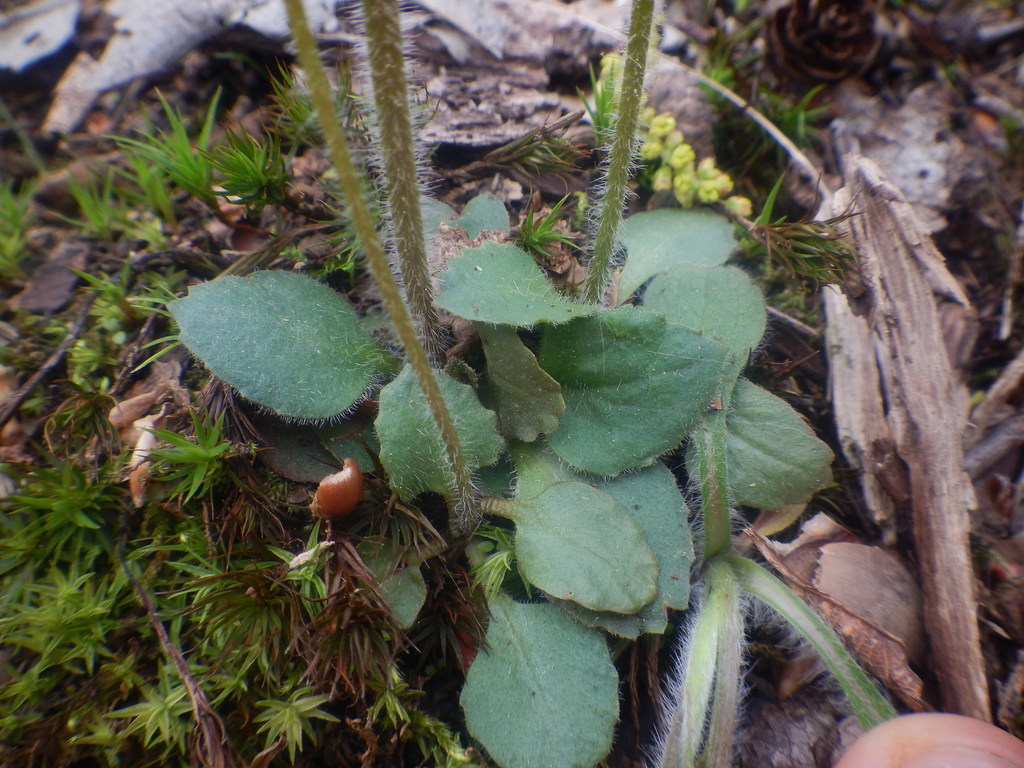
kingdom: Plantae
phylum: Tracheophyta
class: Magnoliopsida
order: Saxifragales
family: Saxifragaceae
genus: Micranthes
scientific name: Micranthes virginiensis
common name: Early saxifrage
